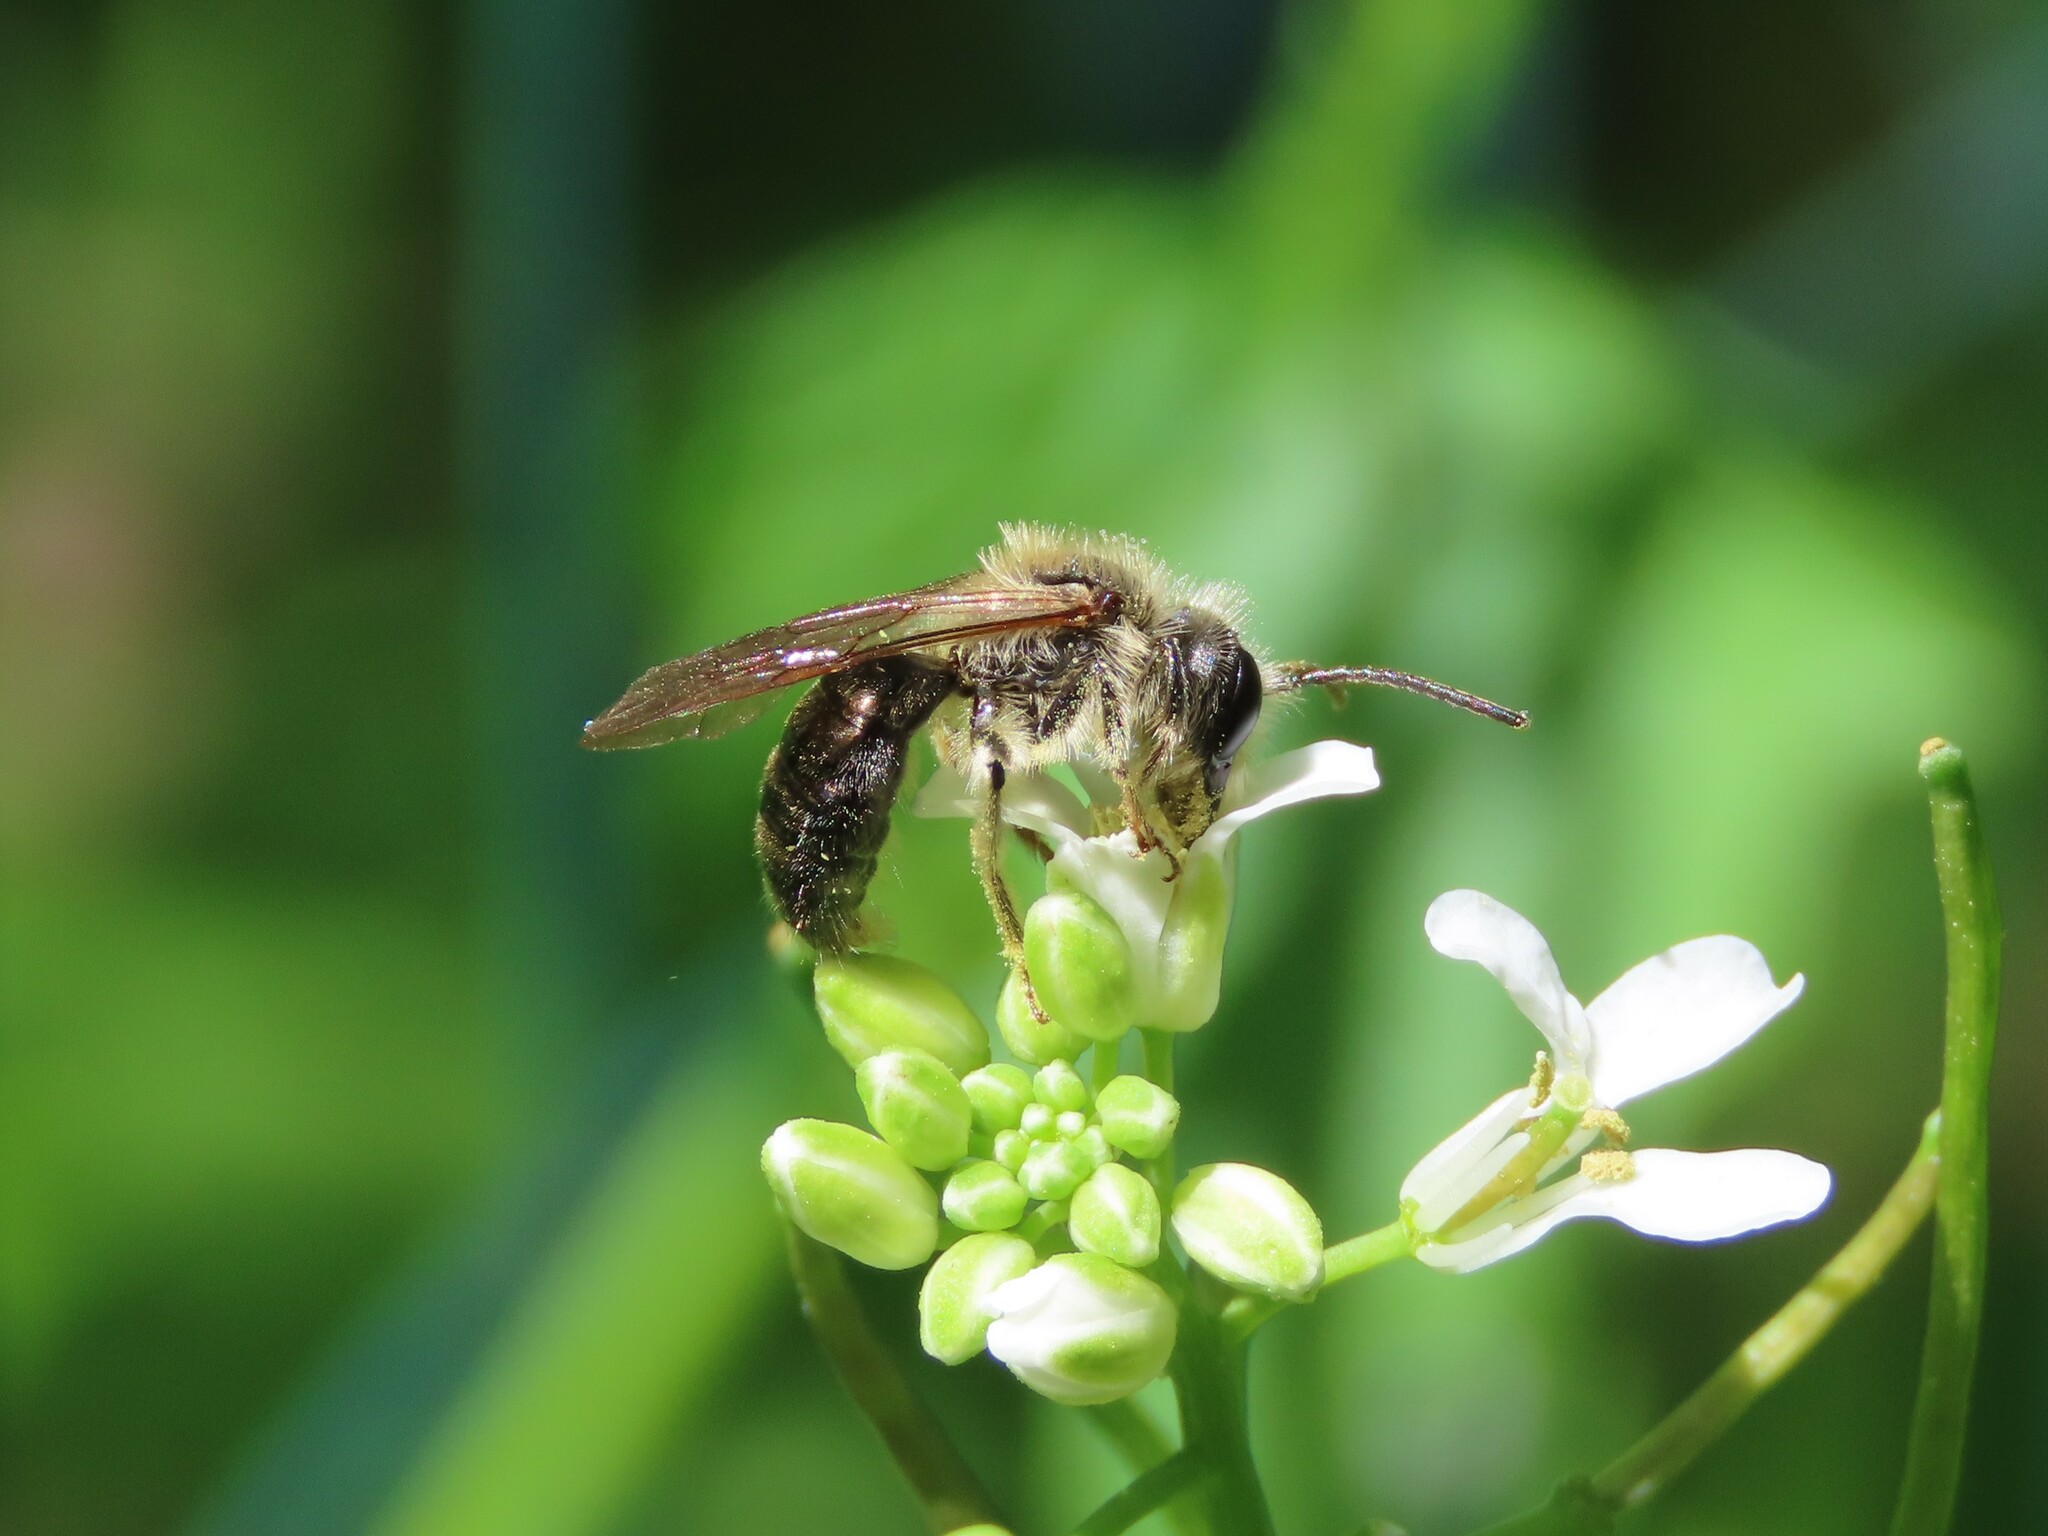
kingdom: Animalia
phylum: Arthropoda
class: Insecta
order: Hymenoptera
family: Andrenidae
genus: Andrena
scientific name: Andrena pruni
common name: Cherry mining bee
